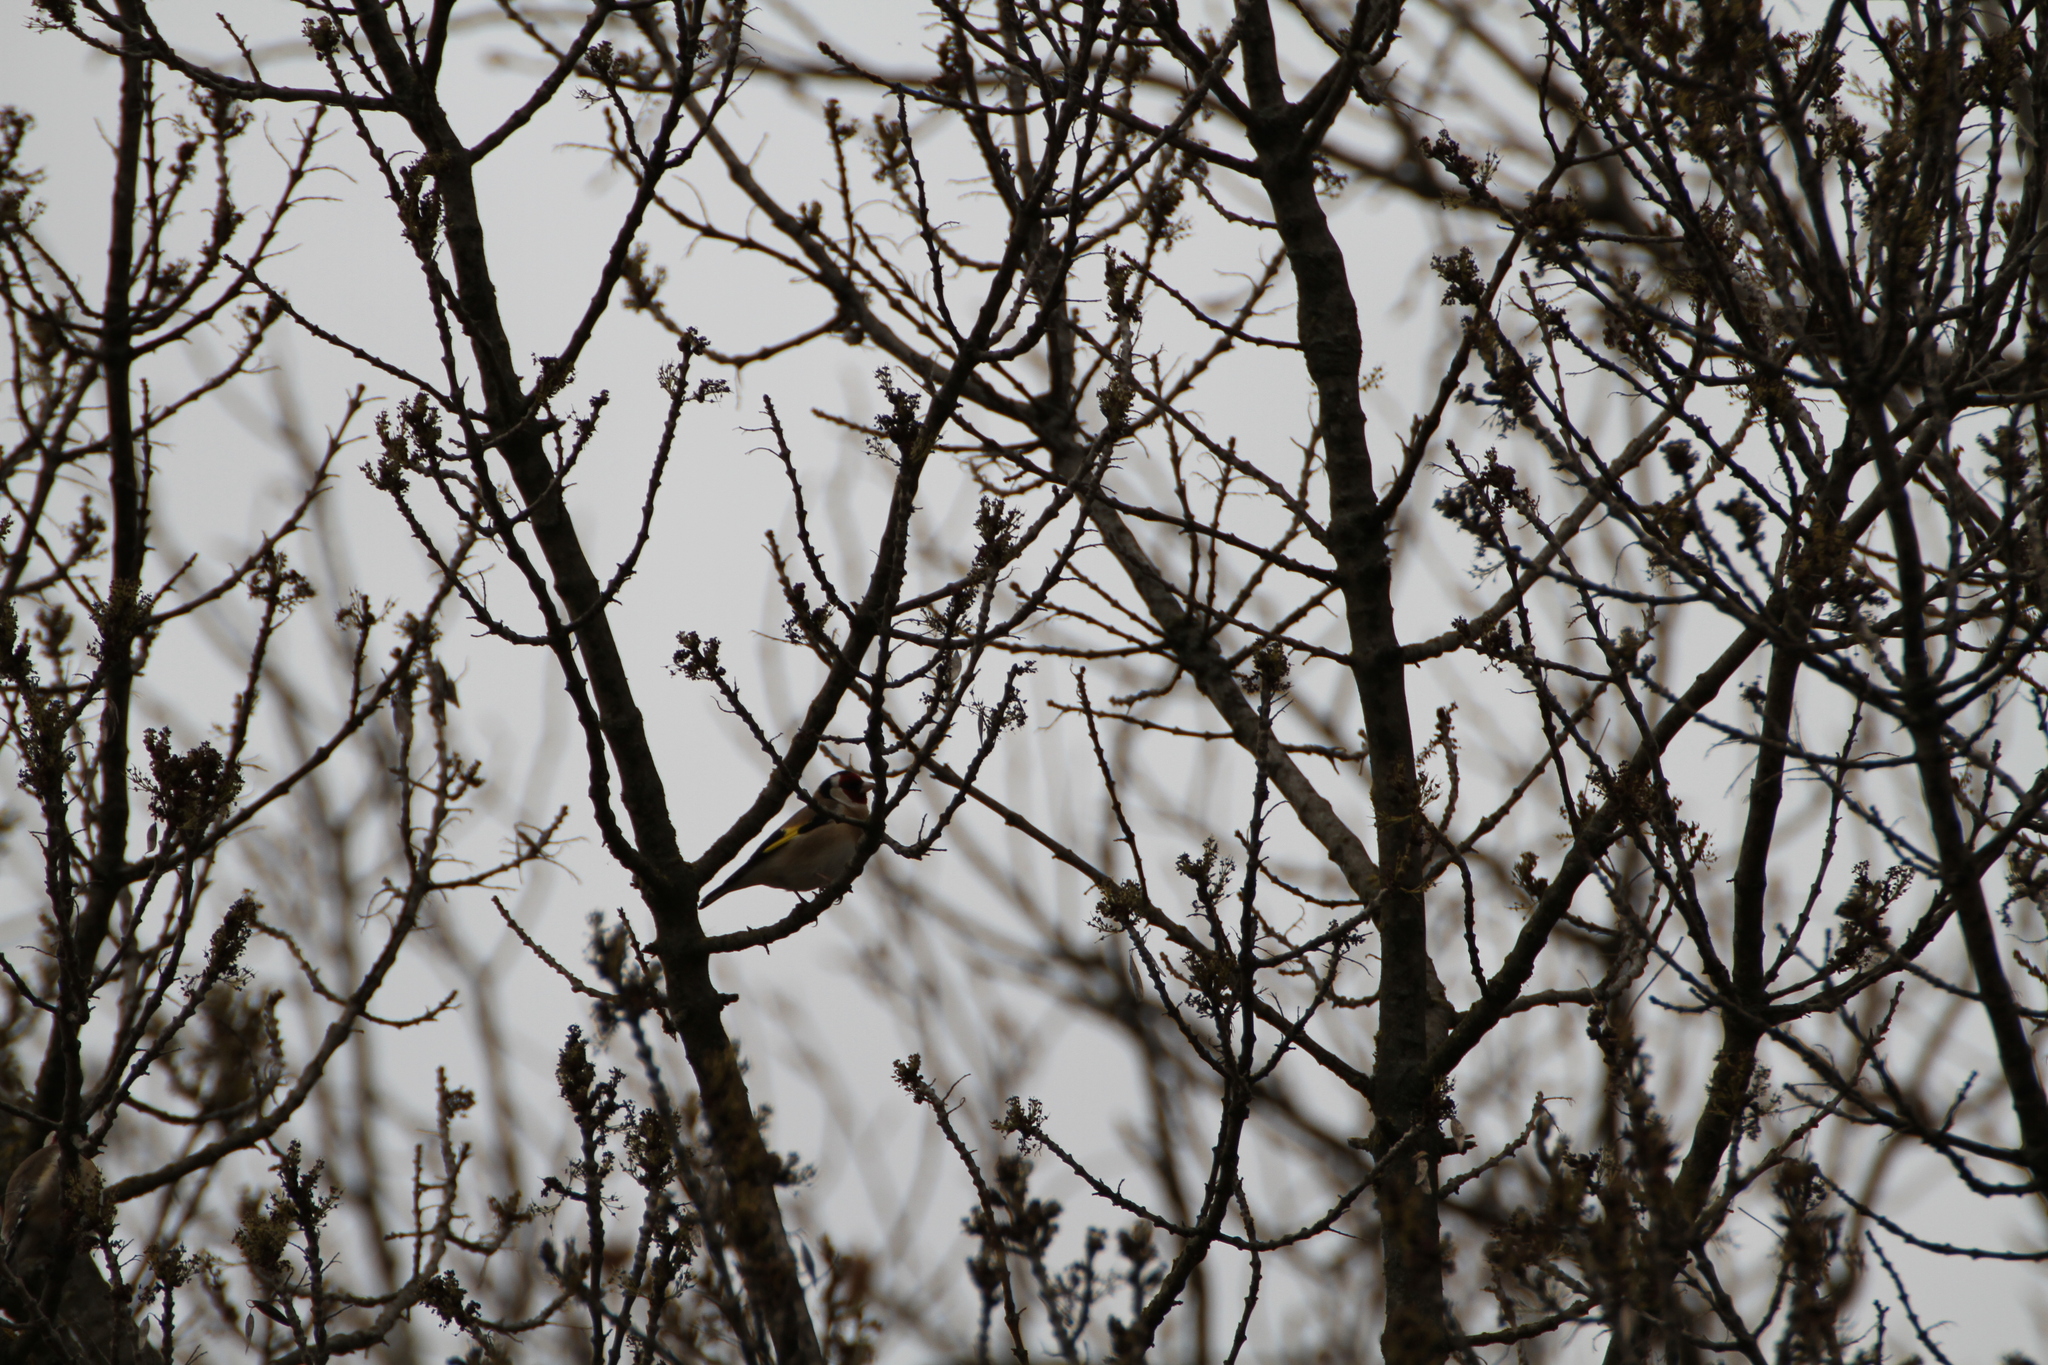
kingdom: Animalia
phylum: Chordata
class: Aves
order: Passeriformes
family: Fringillidae
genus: Carduelis
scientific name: Carduelis carduelis
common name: European goldfinch
